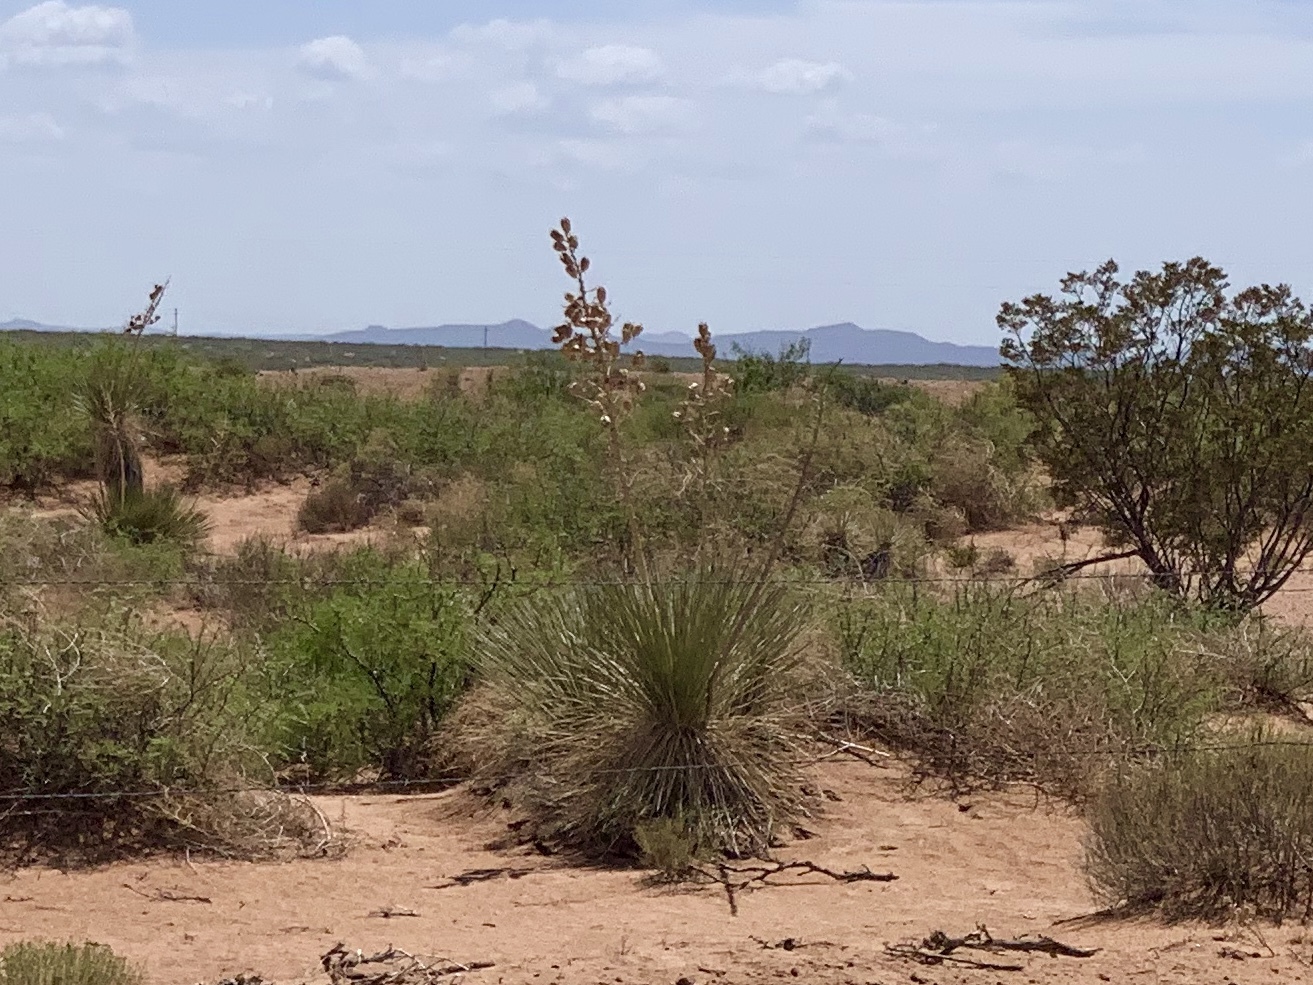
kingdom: Plantae
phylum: Tracheophyta
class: Liliopsida
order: Asparagales
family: Asparagaceae
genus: Yucca
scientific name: Yucca elata
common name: Palmella
